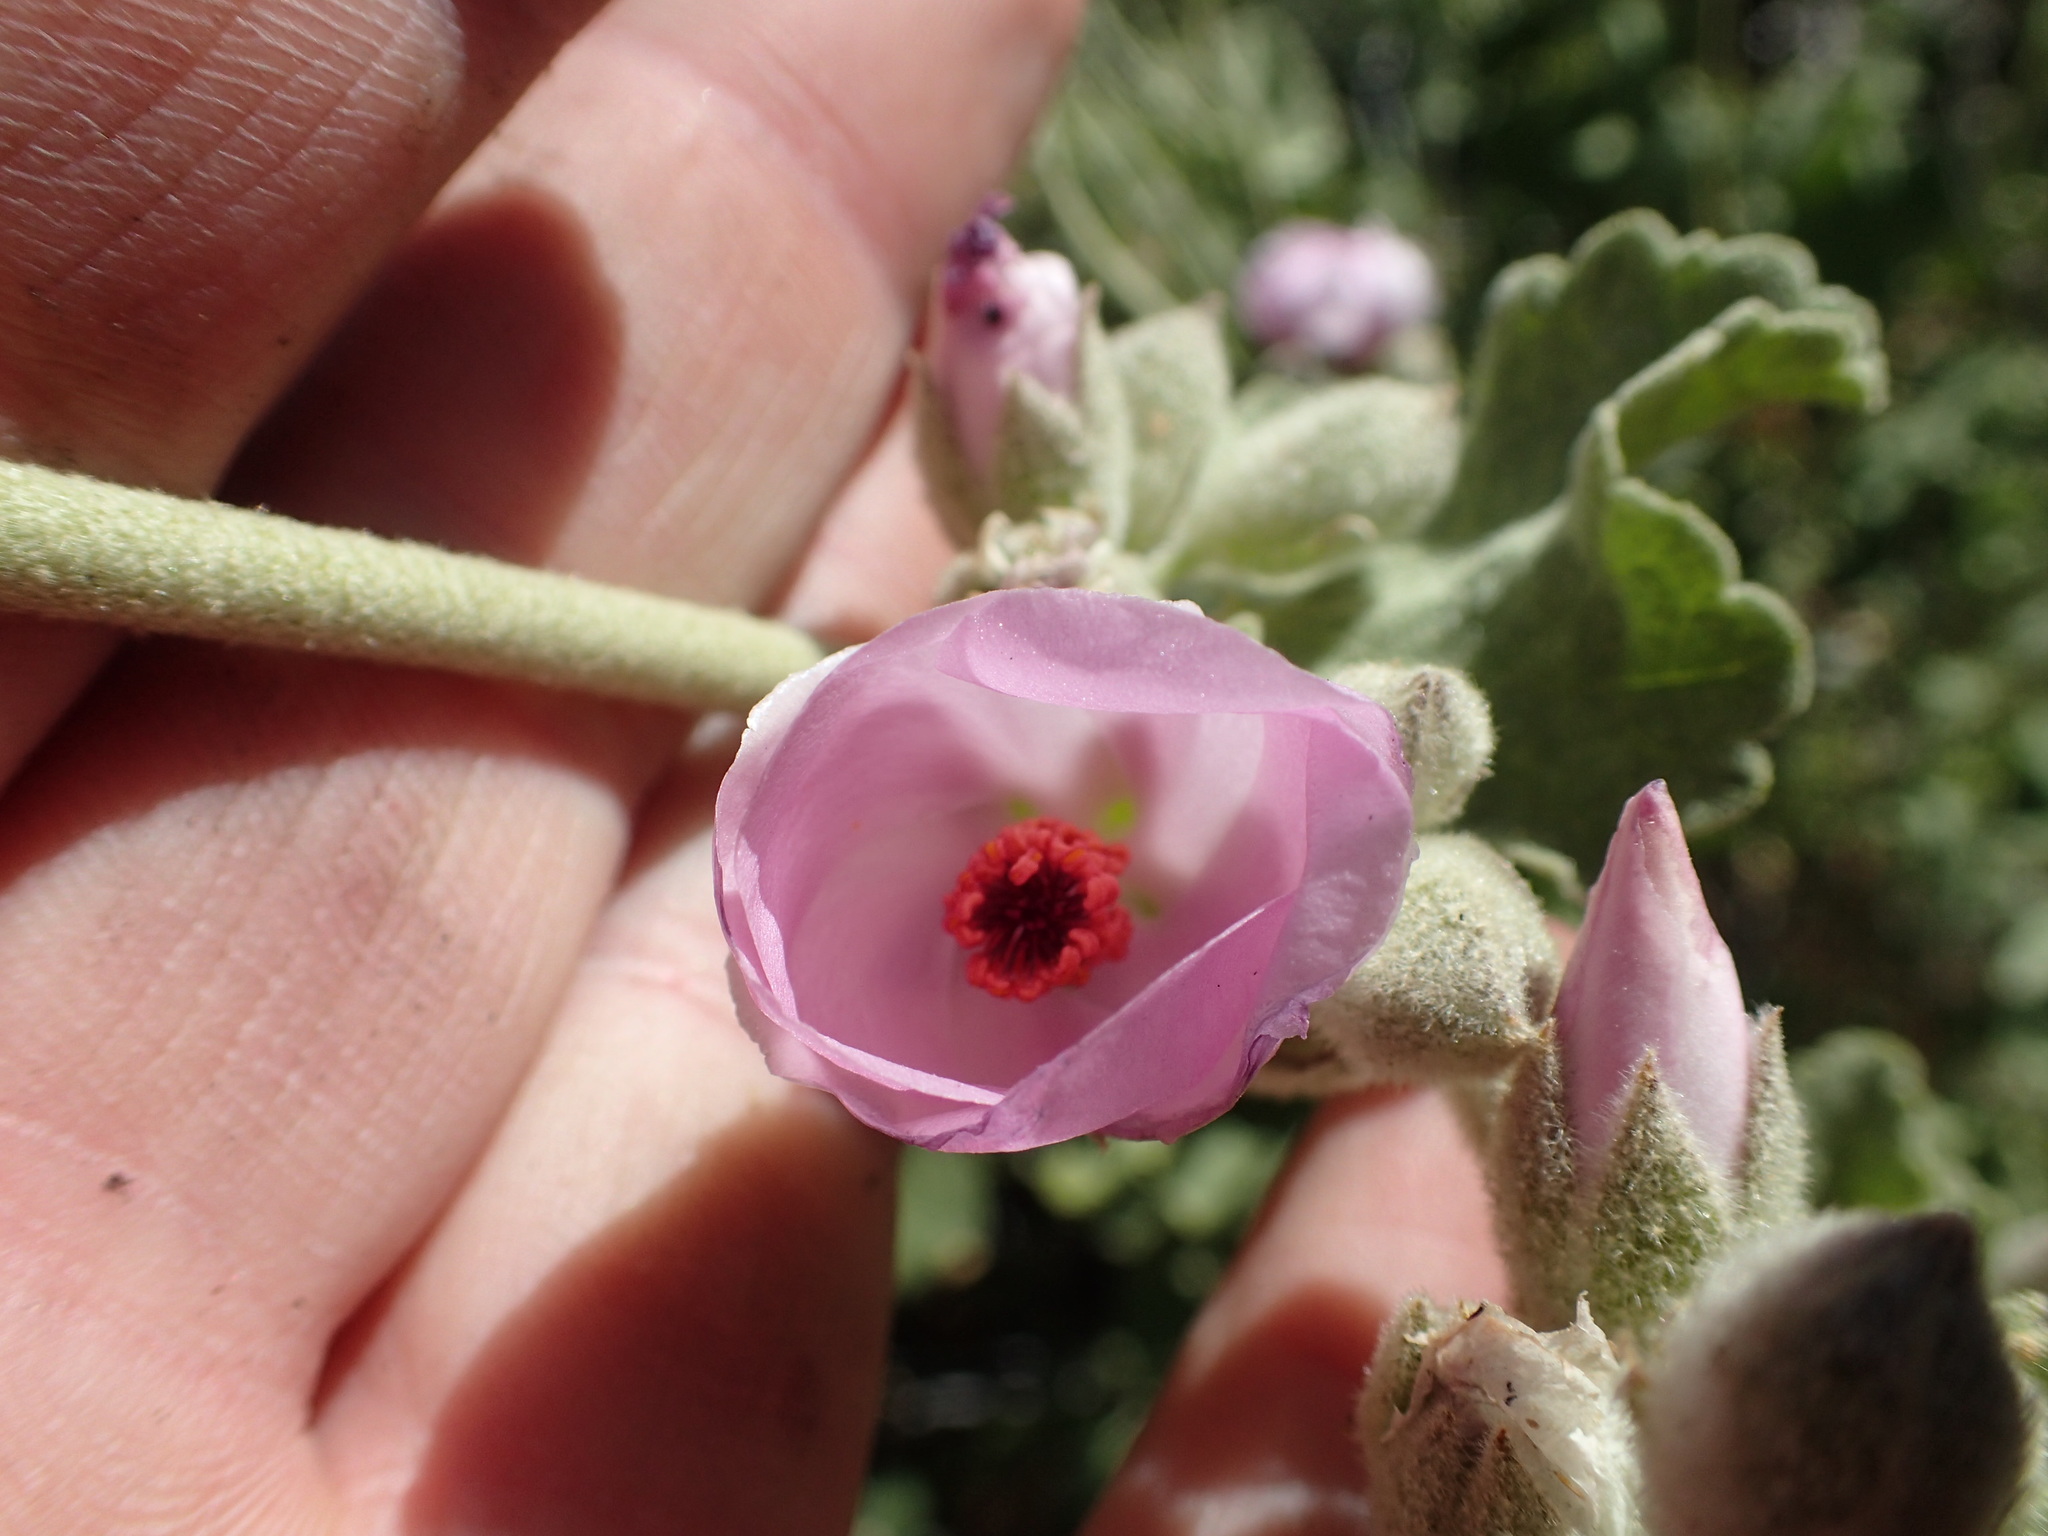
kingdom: Plantae
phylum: Tracheophyta
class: Magnoliopsida
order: Malvales
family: Malvaceae
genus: Malacothamnus
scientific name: Malacothamnus fremontii
